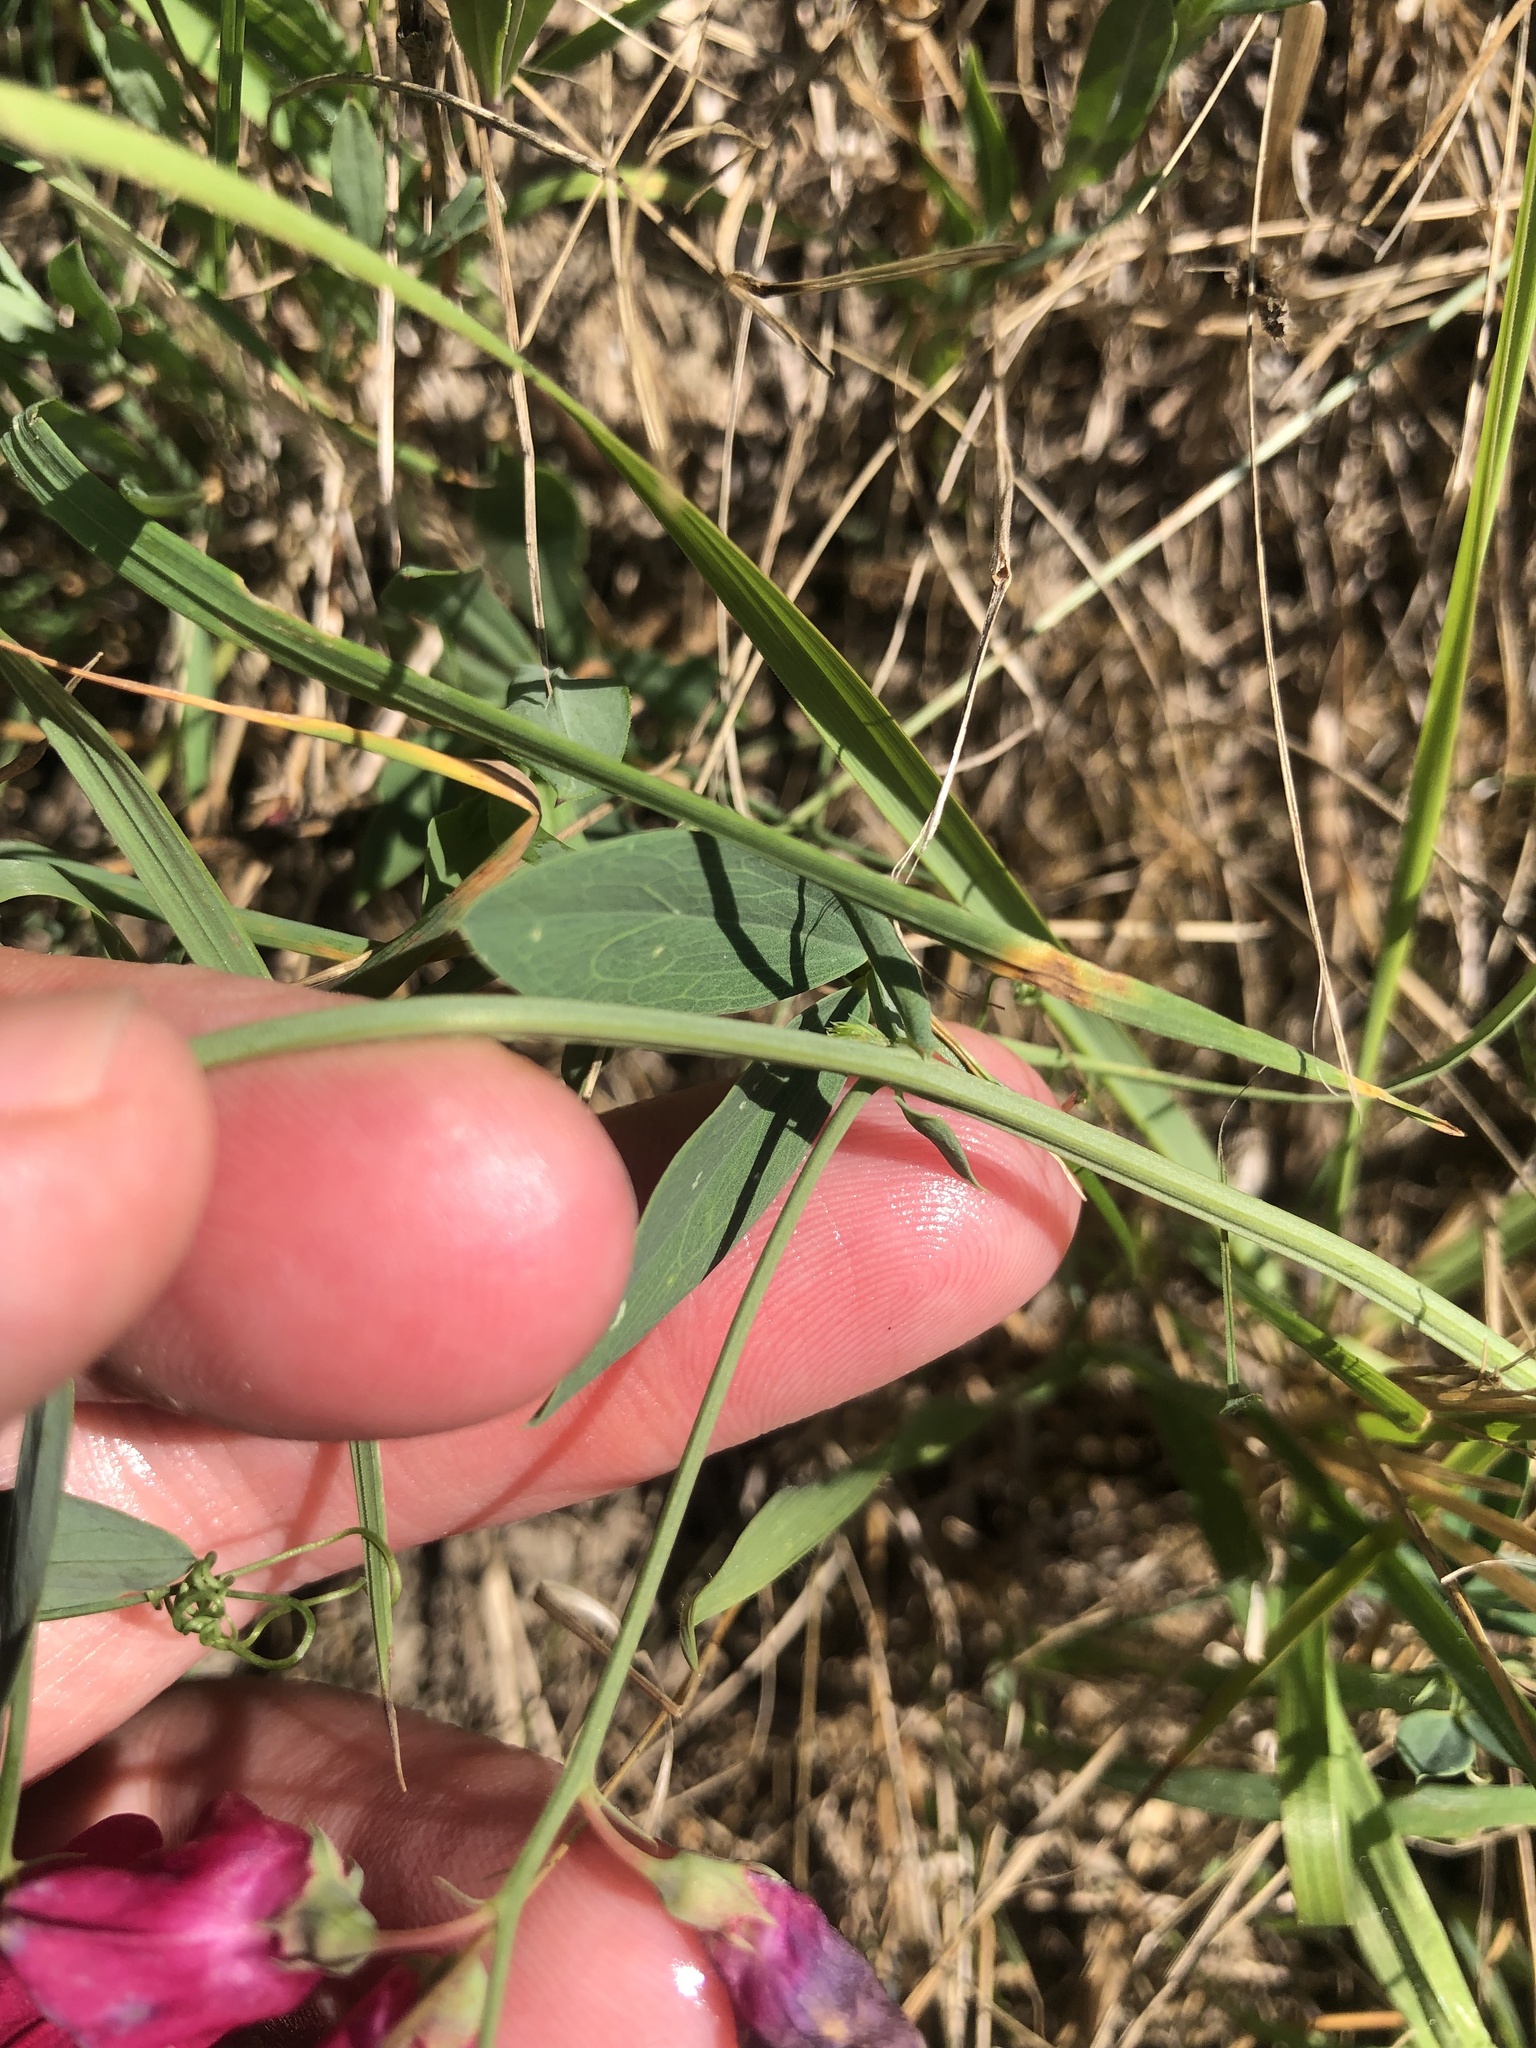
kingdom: Plantae
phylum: Tracheophyta
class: Magnoliopsida
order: Fabales
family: Fabaceae
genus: Lathyrus
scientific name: Lathyrus tuberosus
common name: Tuberous pea
